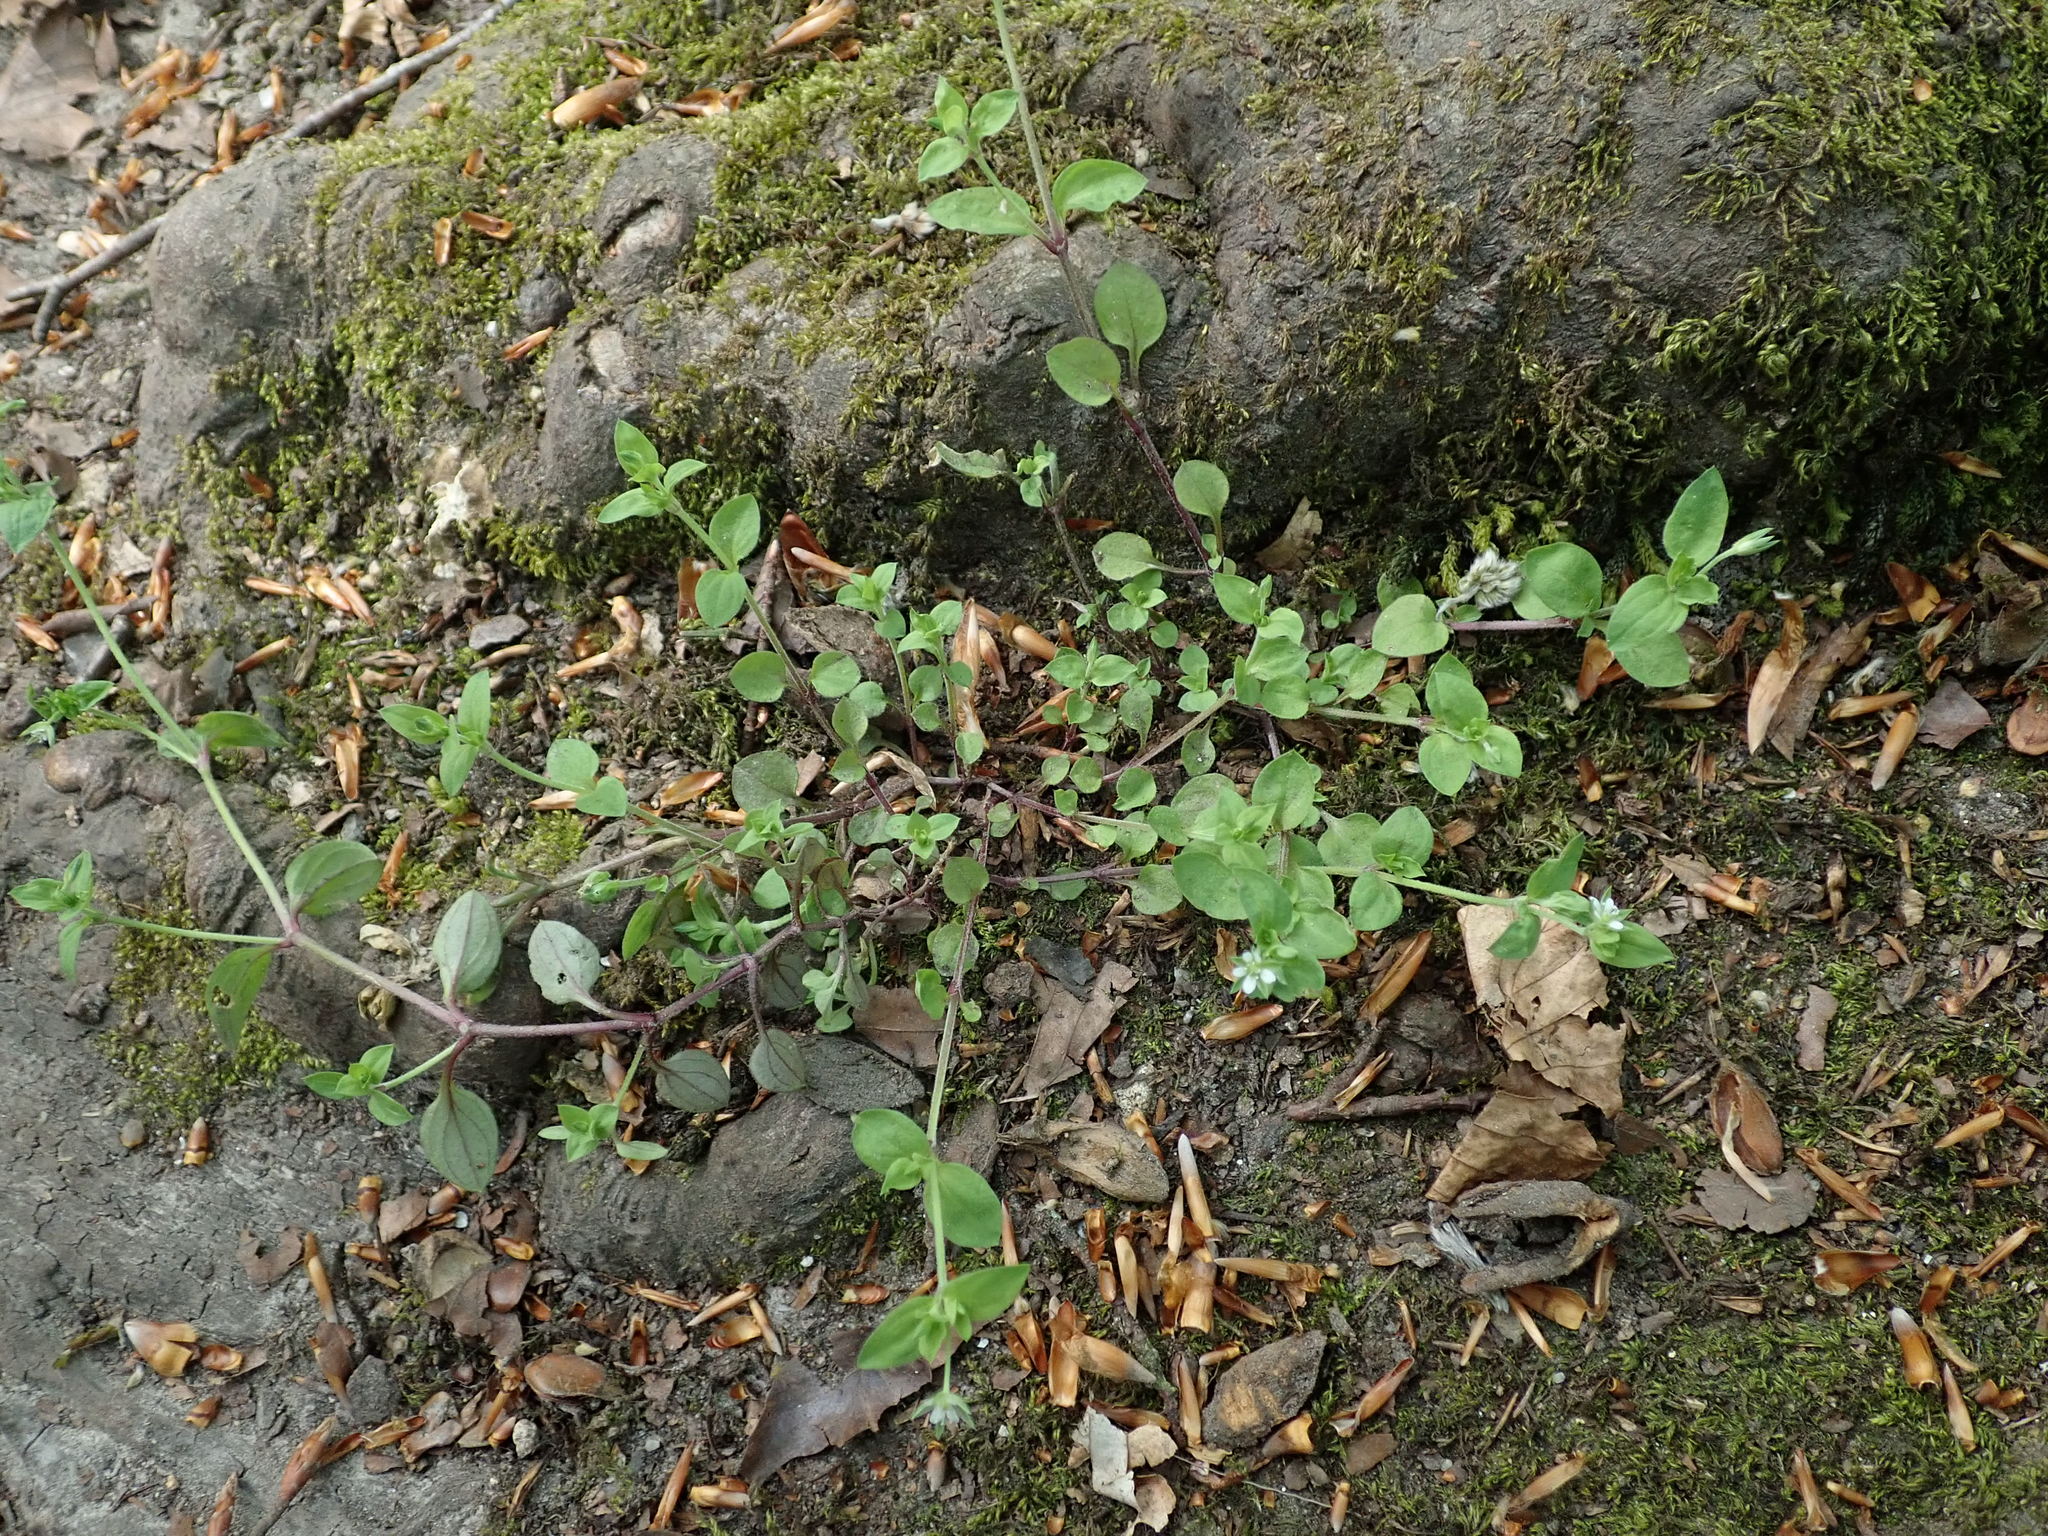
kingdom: Plantae
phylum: Tracheophyta
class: Magnoliopsida
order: Caryophyllales
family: Caryophyllaceae
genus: Moehringia
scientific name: Moehringia trinervia
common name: Three-nerved sandwort
